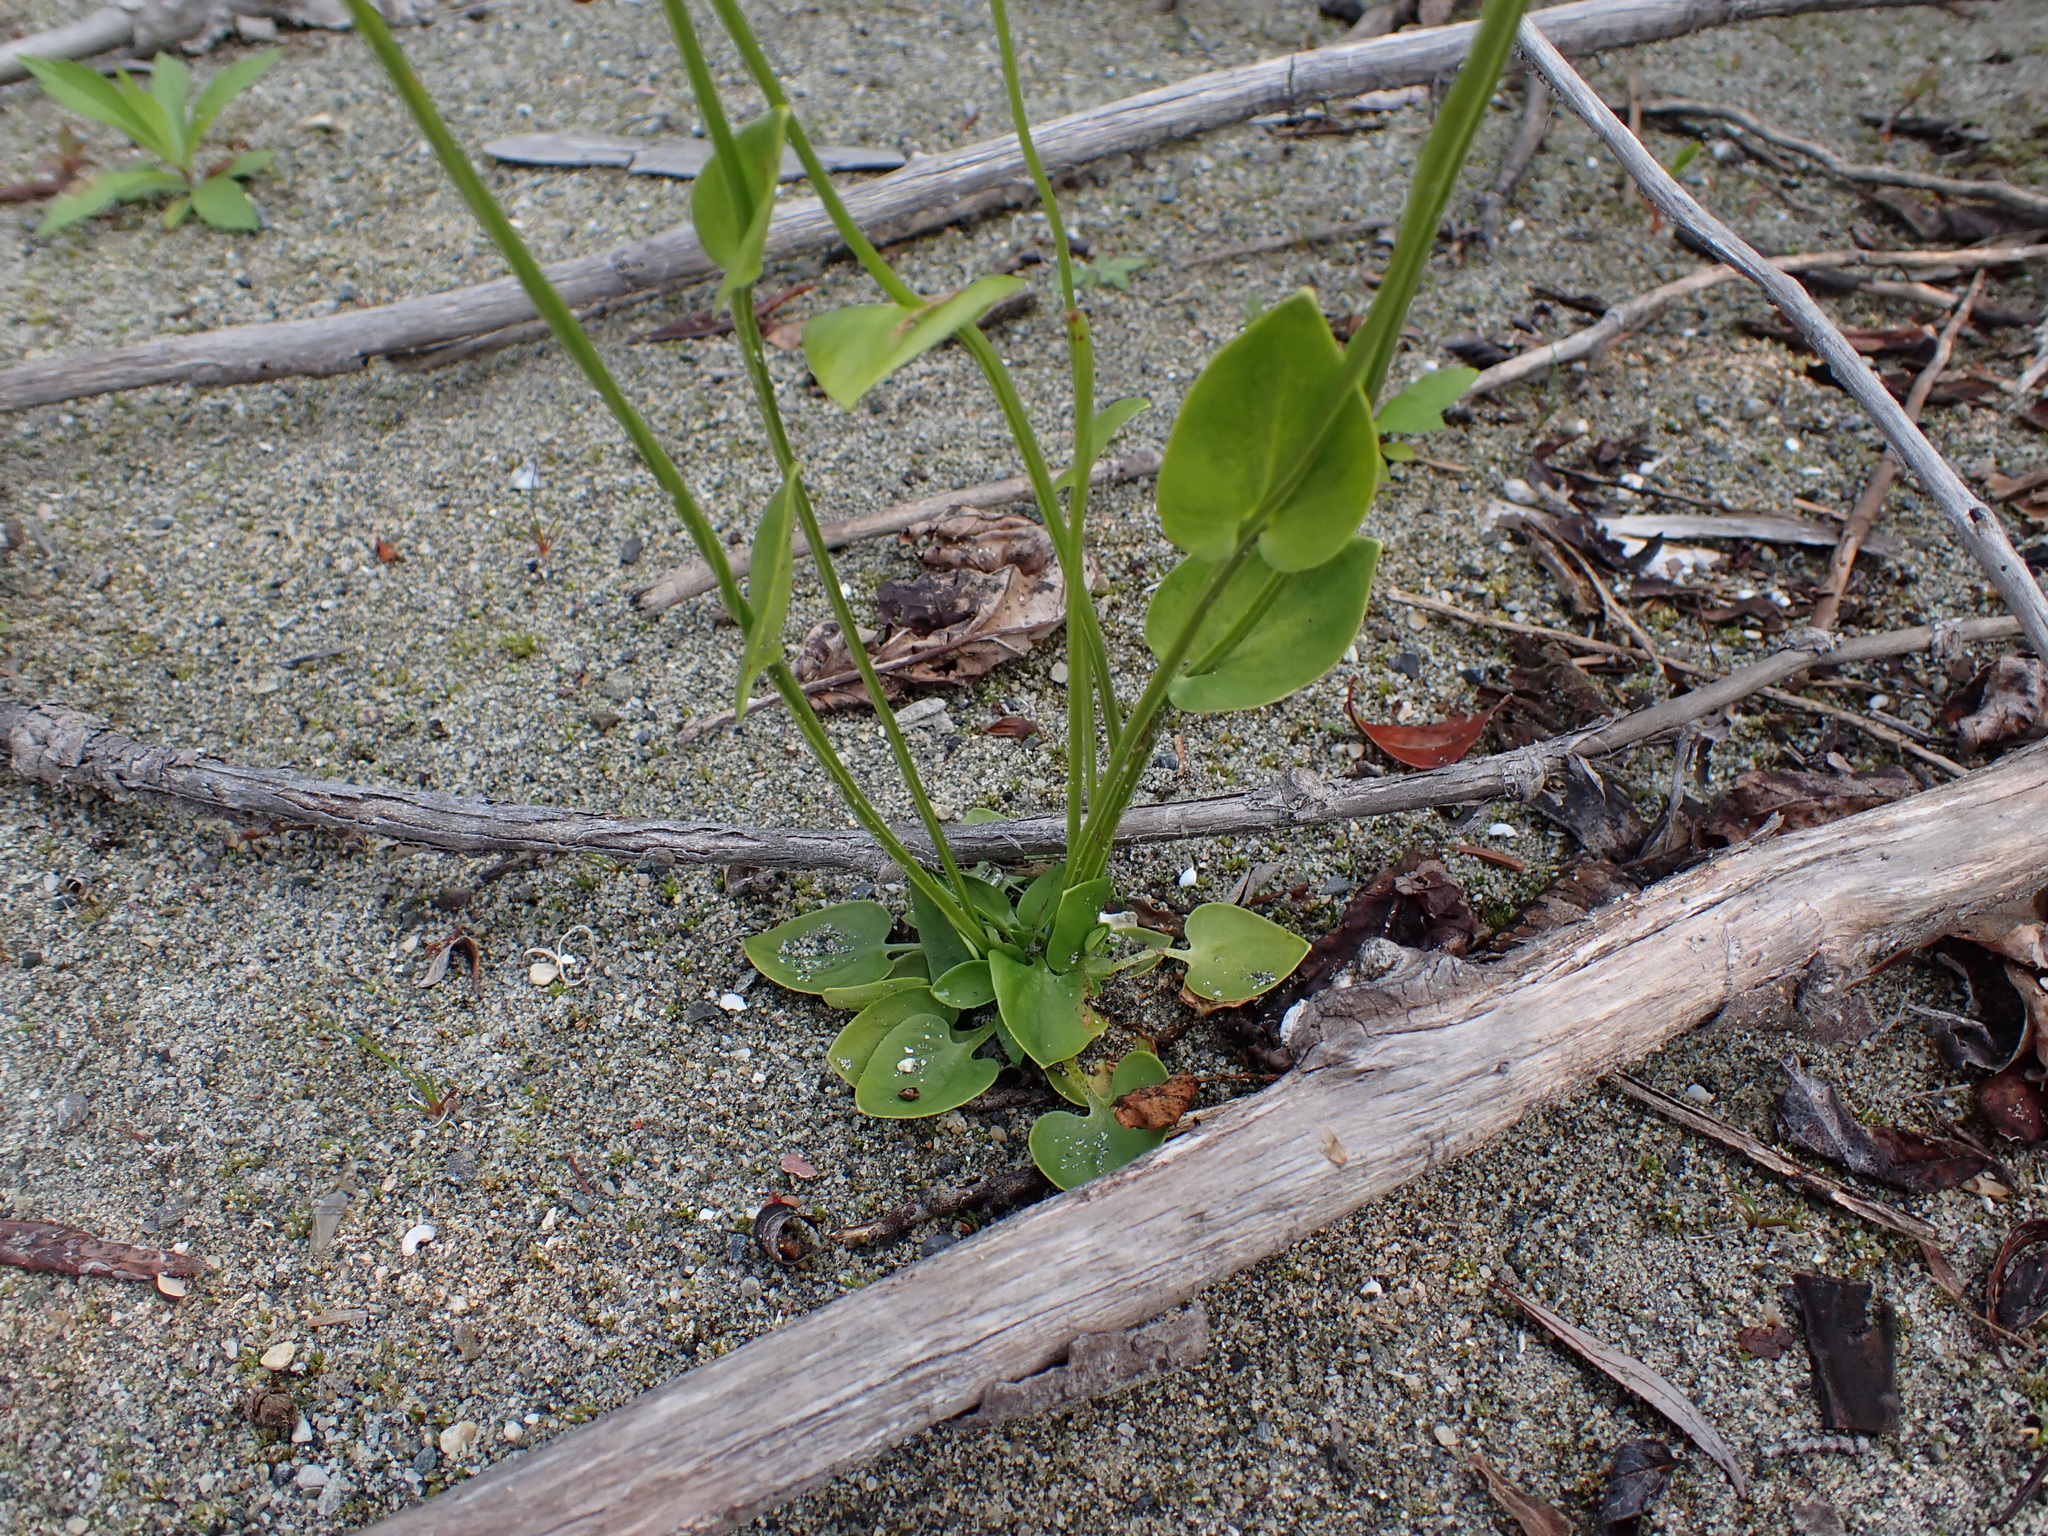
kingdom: Plantae
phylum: Tracheophyta
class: Magnoliopsida
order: Celastrales
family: Parnassiaceae
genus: Parnassia
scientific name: Parnassia palustris
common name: Grass-of-parnassus
